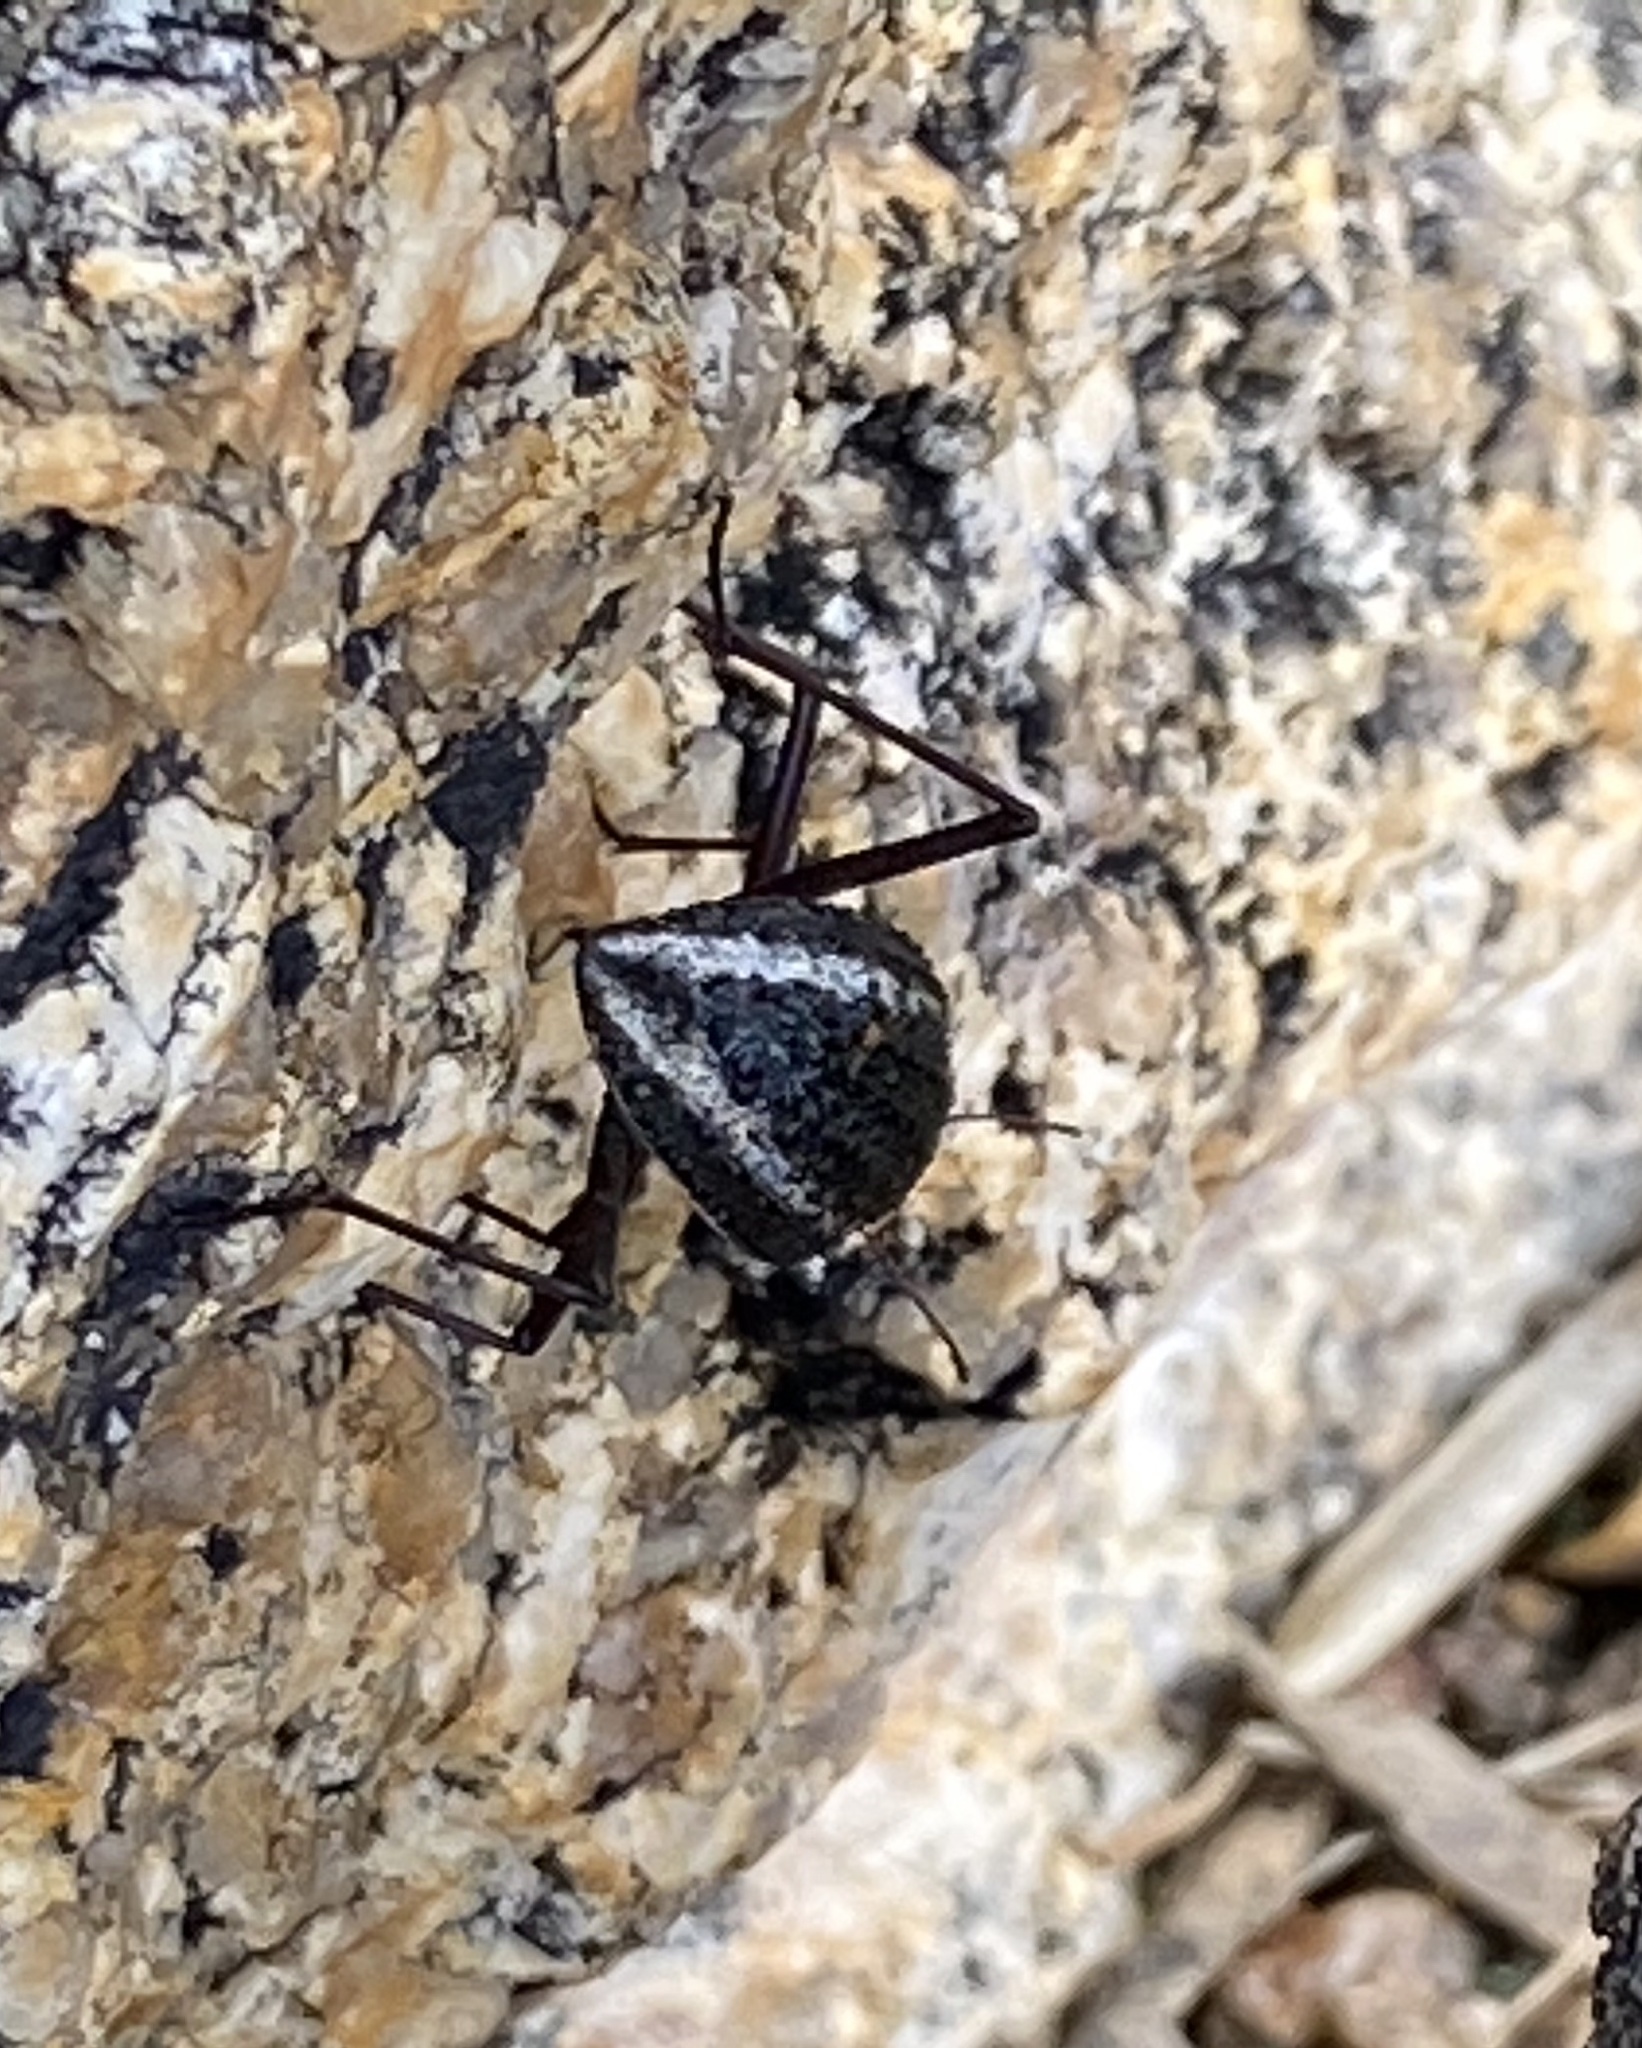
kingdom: Animalia
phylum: Arthropoda
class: Insecta
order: Coleoptera
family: Tenebrionidae
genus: Stenocara
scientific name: Stenocara
